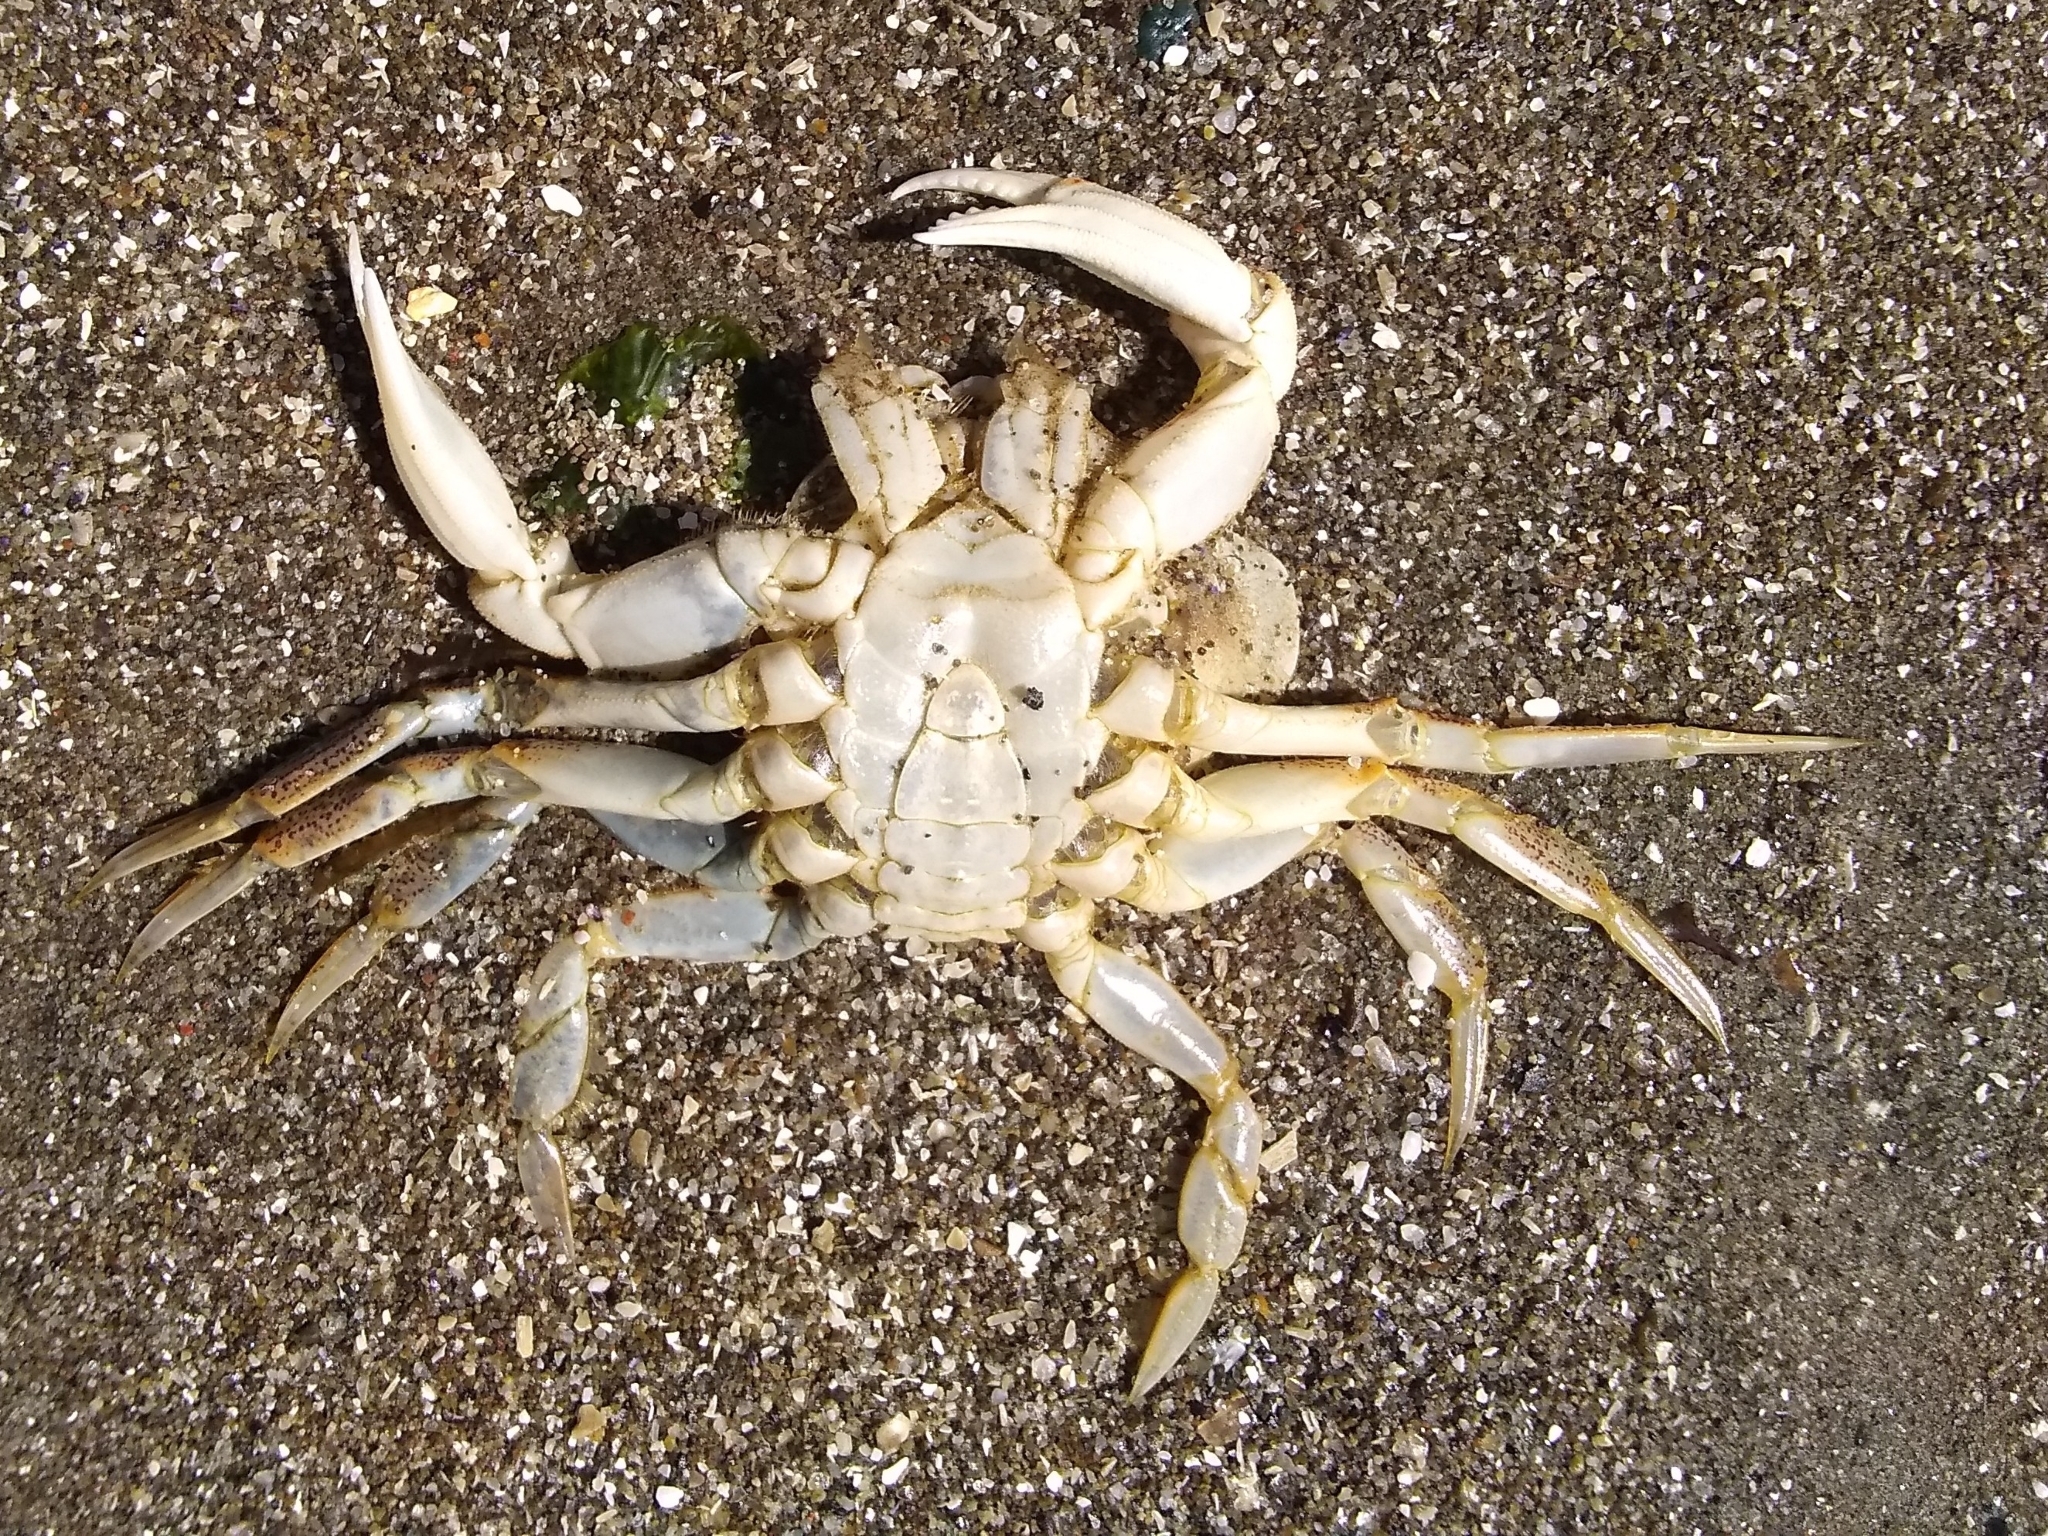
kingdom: Animalia
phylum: Arthropoda
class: Malacostraca
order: Decapoda
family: Cancridae
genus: Metacarcinus
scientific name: Metacarcinus magister
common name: Californian crab
